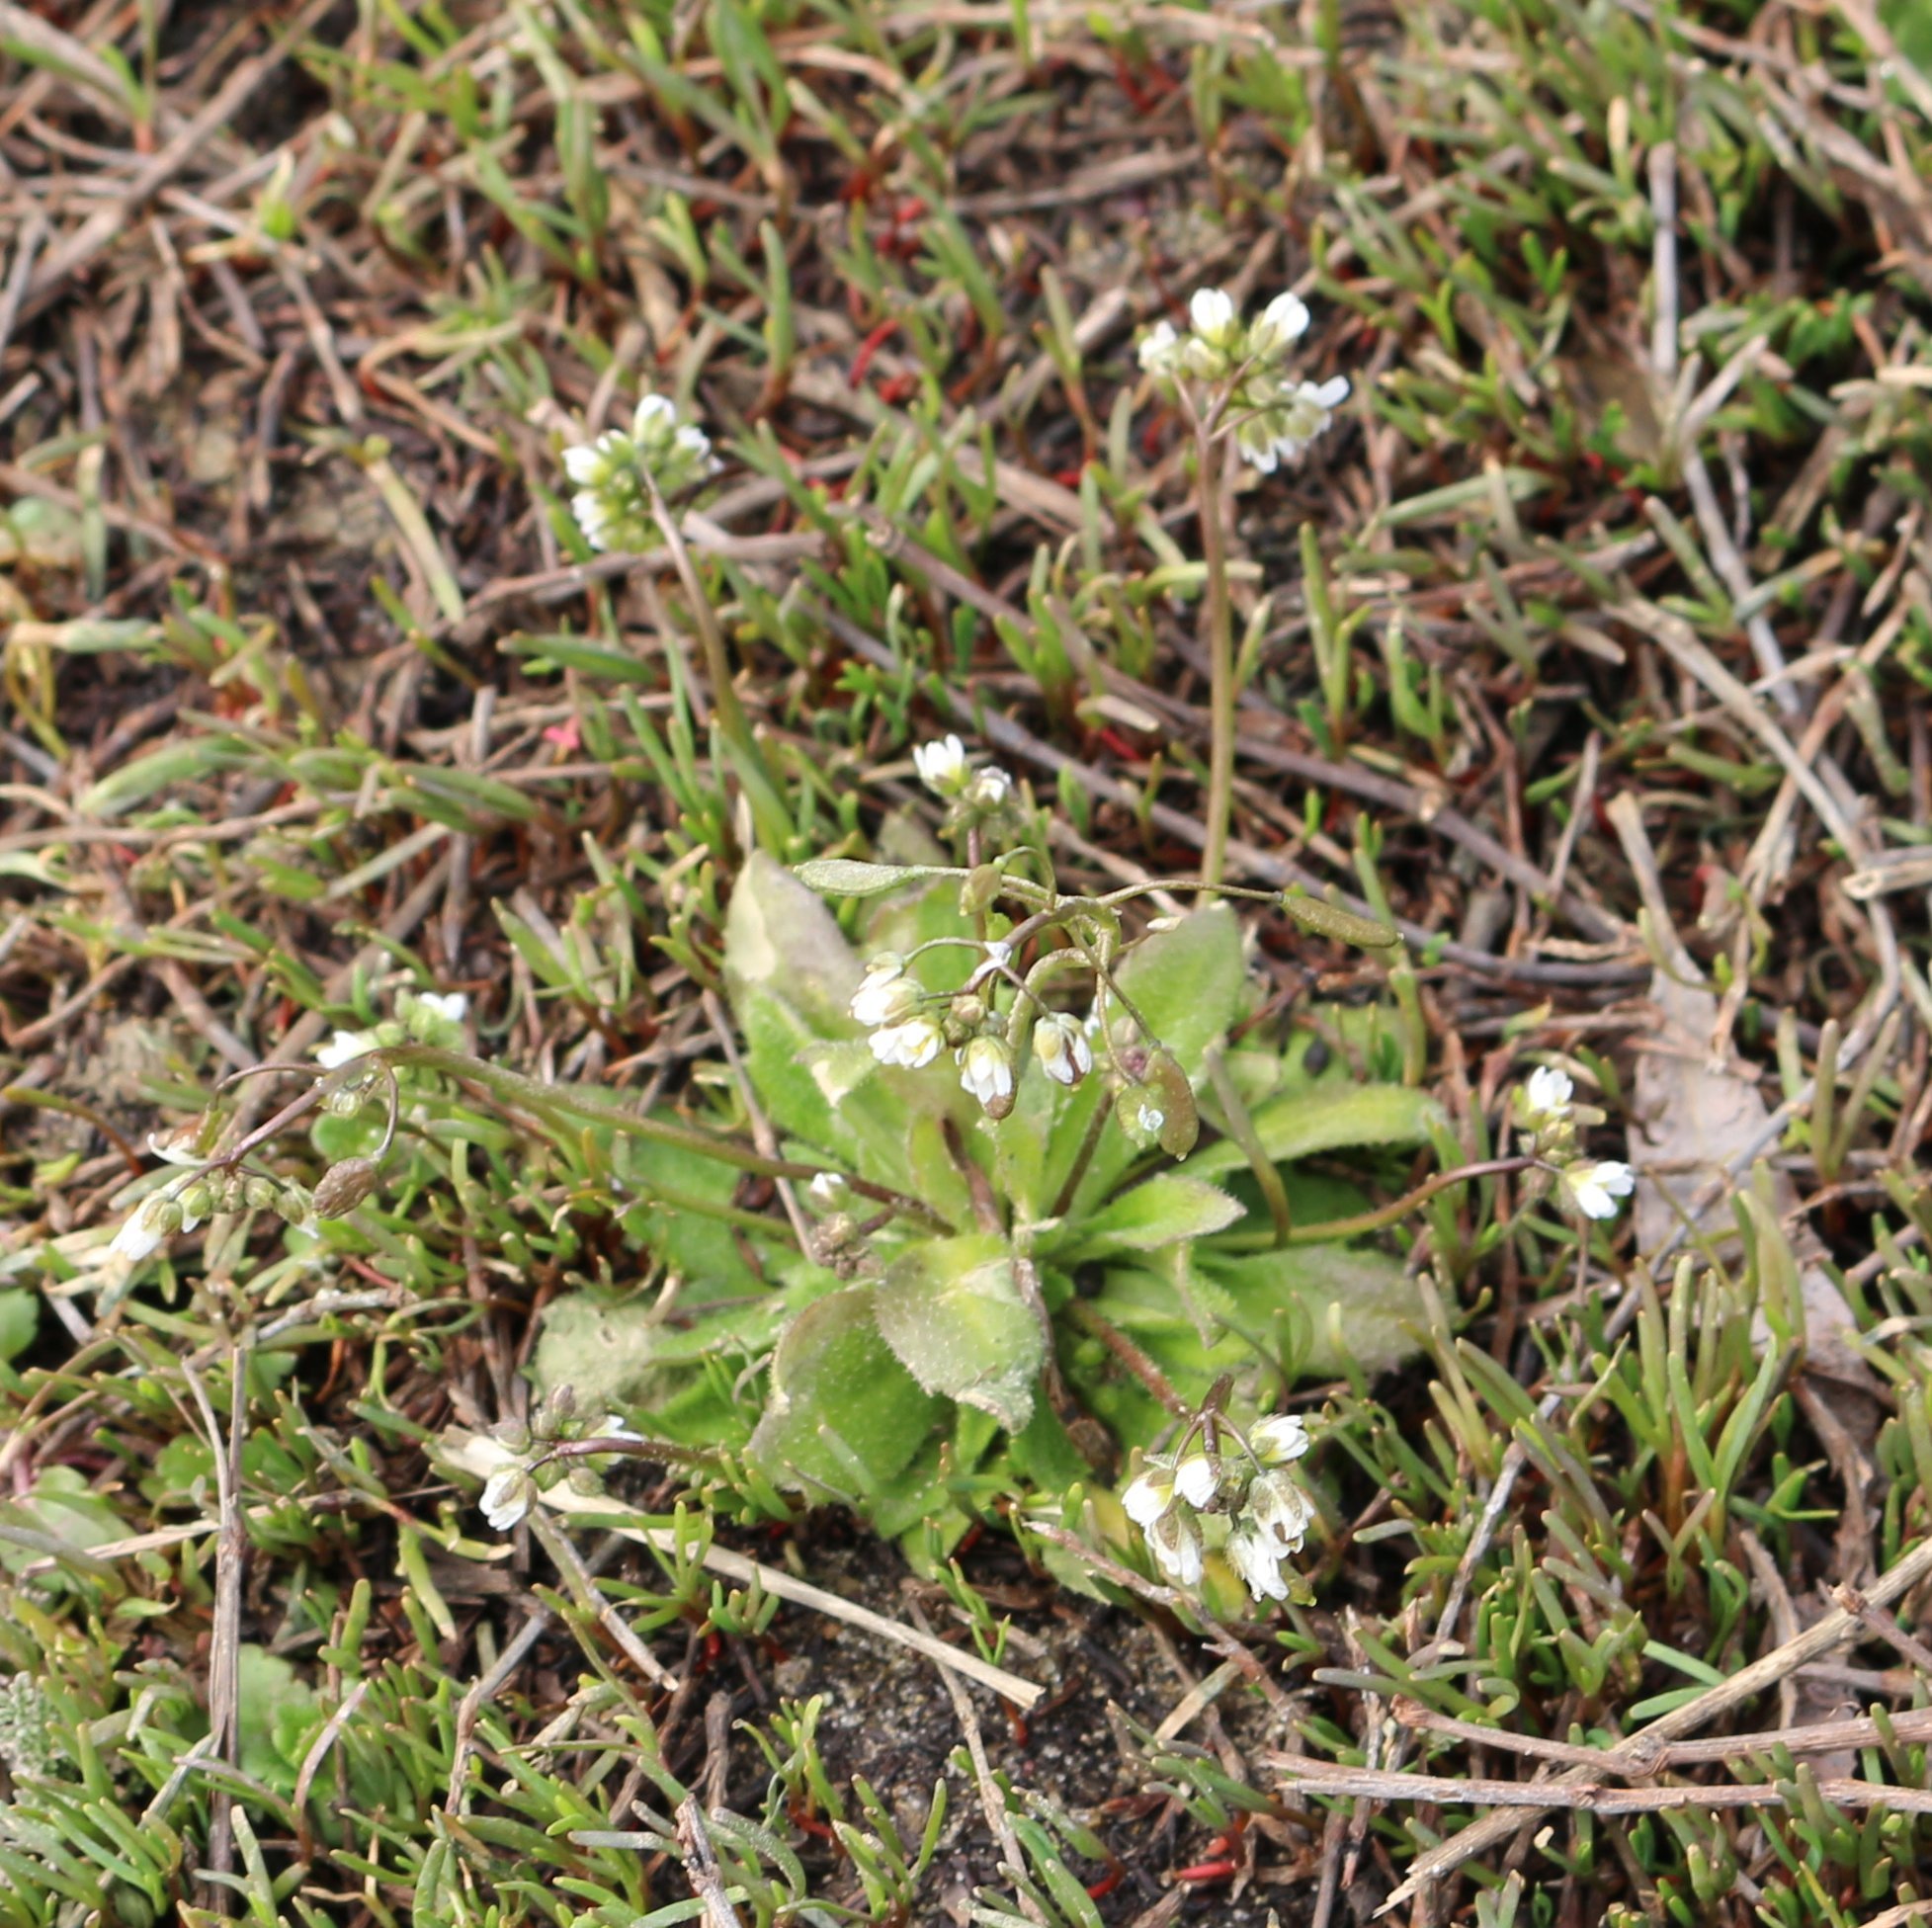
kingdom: Plantae
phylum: Tracheophyta
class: Magnoliopsida
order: Brassicales
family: Brassicaceae
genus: Draba
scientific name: Draba verna
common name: Spring draba
